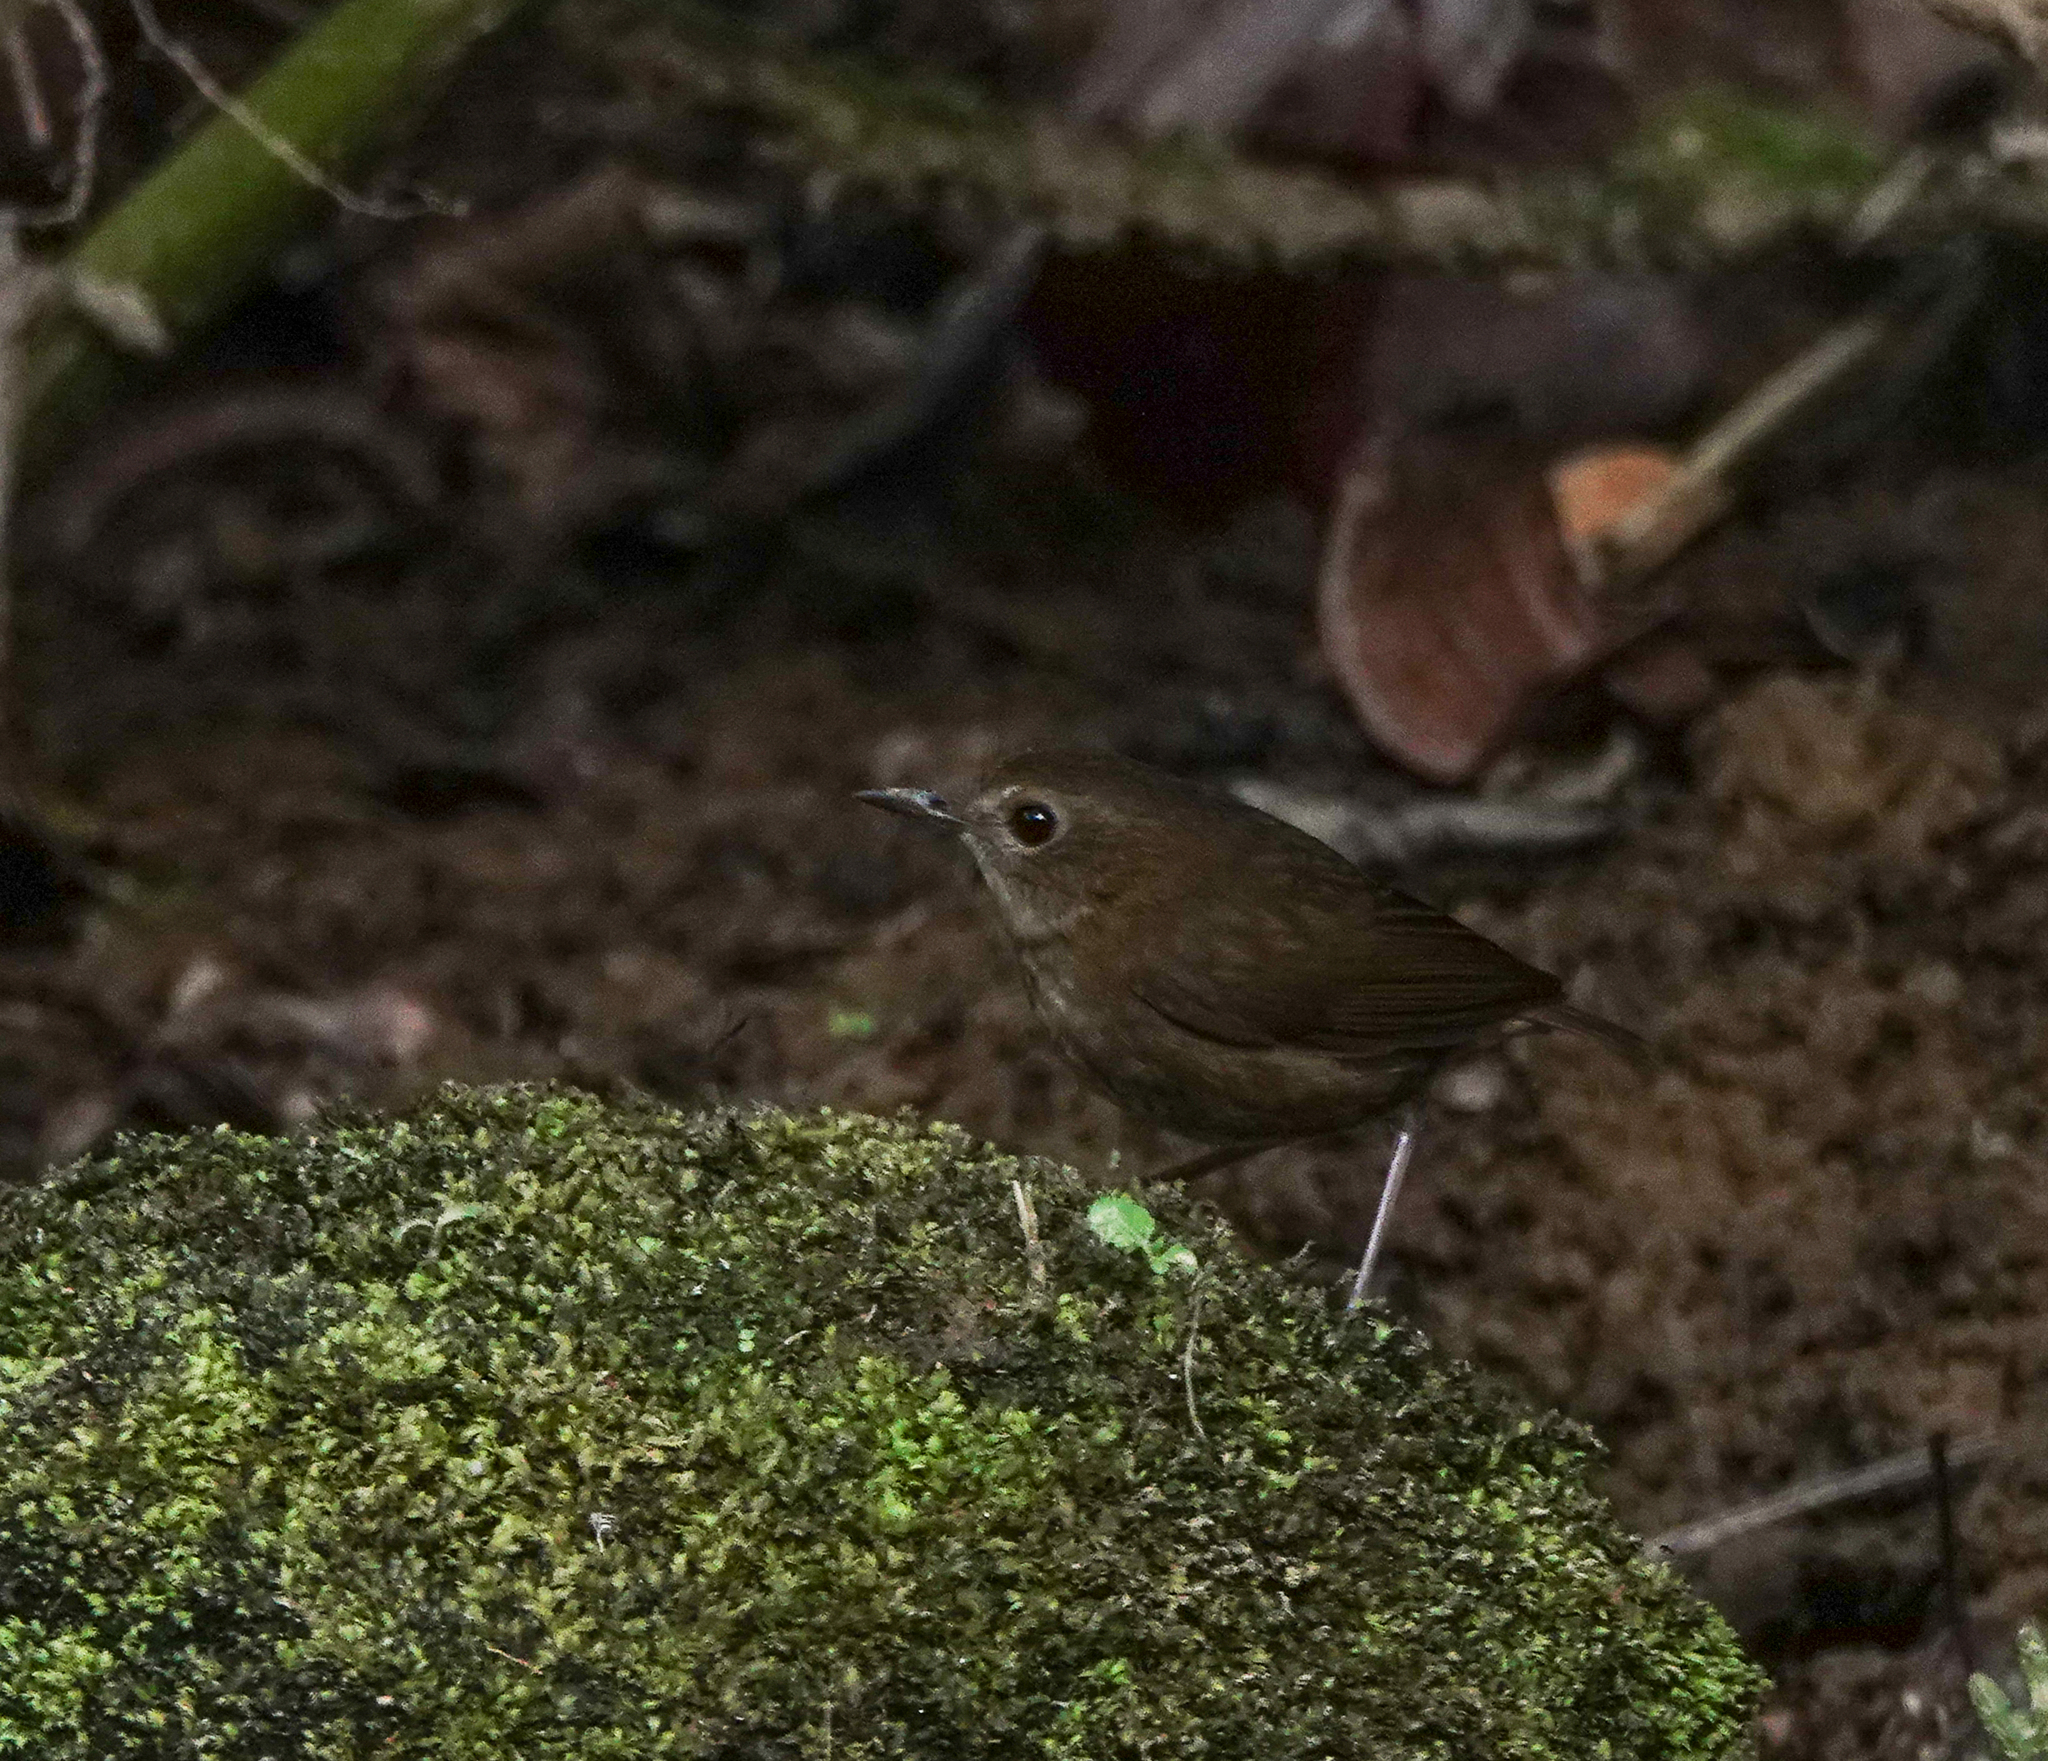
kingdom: Animalia
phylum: Chordata
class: Aves
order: Passeriformes
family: Muscicapidae
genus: Brachypteryx
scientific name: Brachypteryx leucophris
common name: Lesser shortwing
